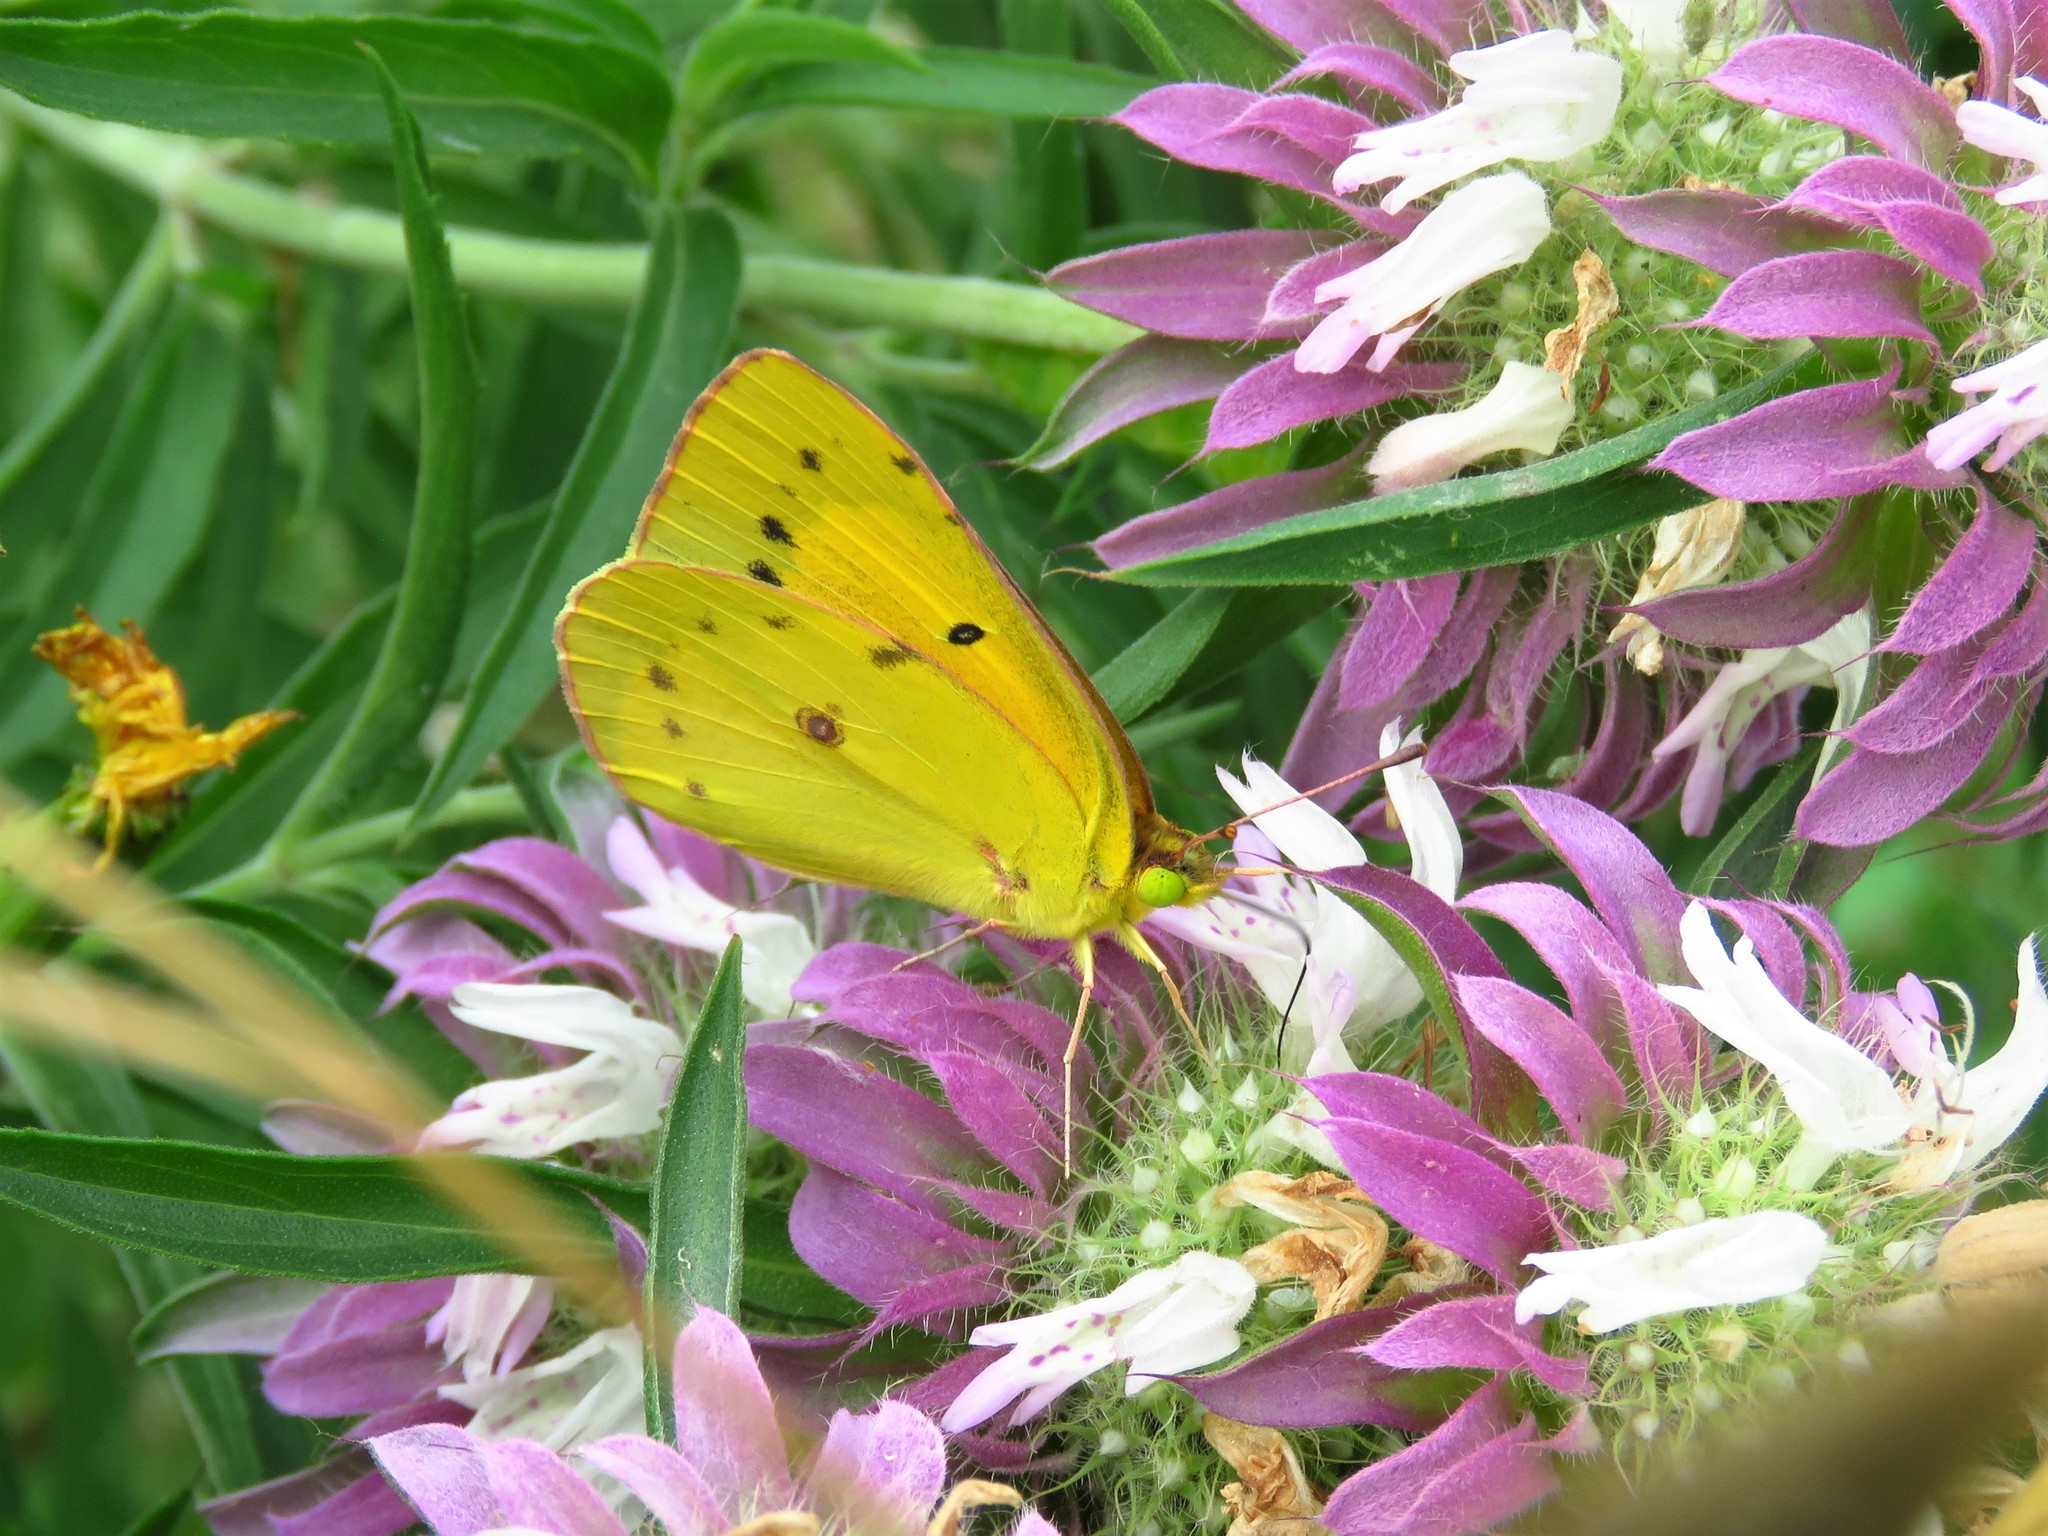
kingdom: Animalia
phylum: Arthropoda
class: Insecta
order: Lepidoptera
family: Pieridae
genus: Colias
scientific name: Colias eurytheme
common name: Alfalfa butterfly
